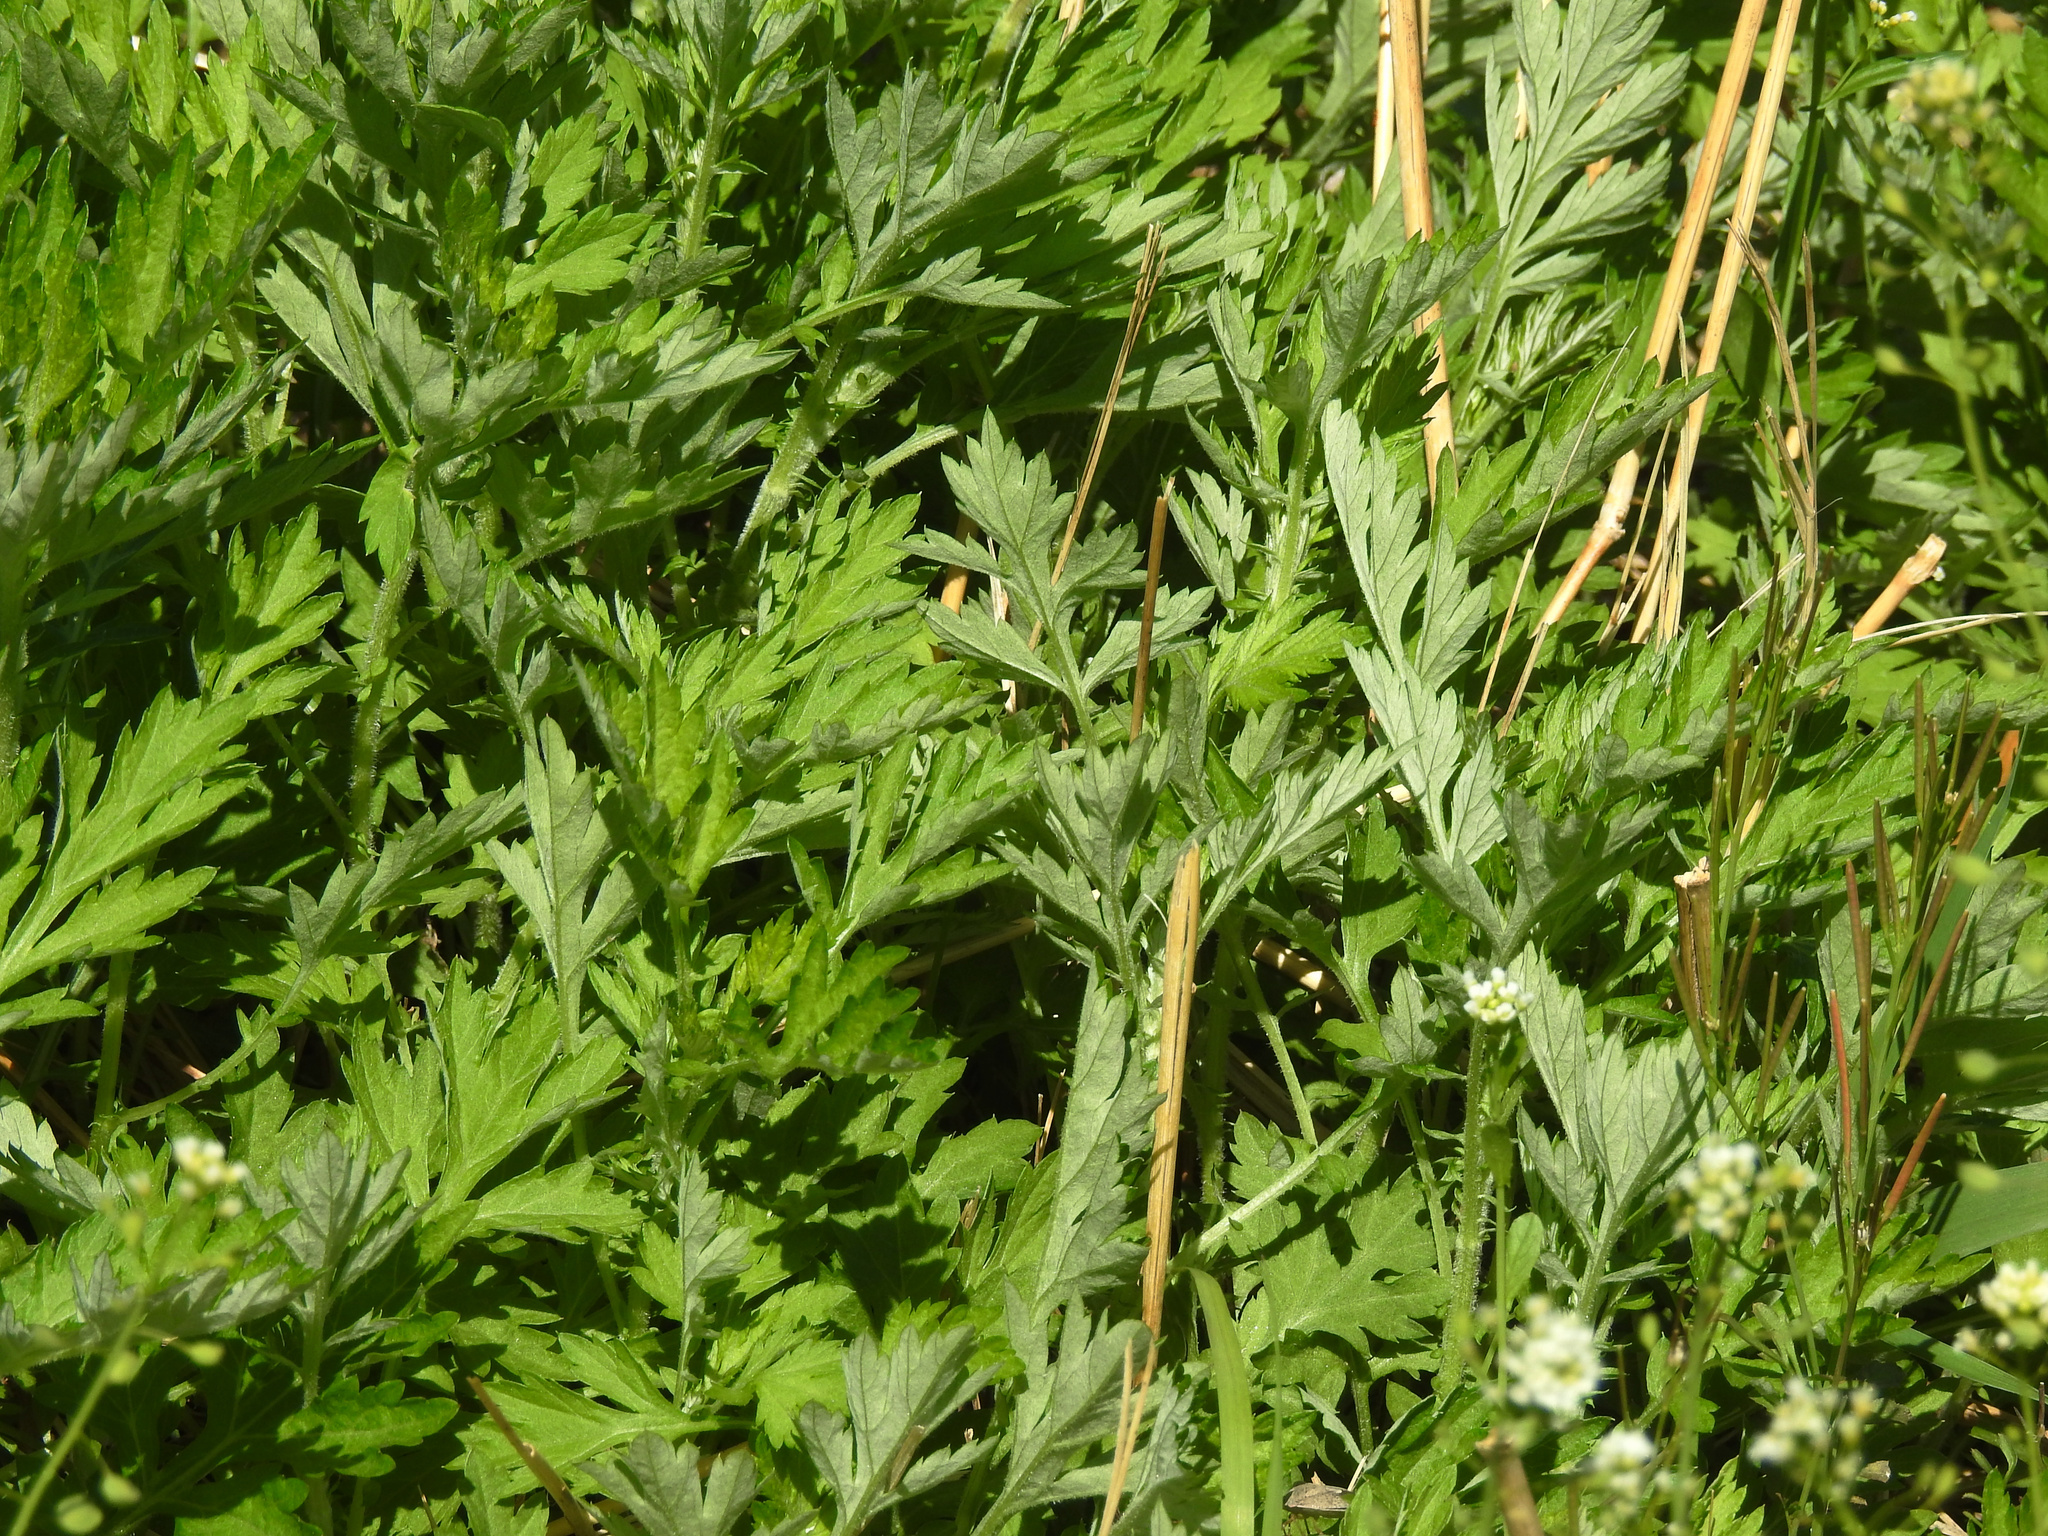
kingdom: Plantae
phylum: Tracheophyta
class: Magnoliopsida
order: Asterales
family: Asteraceae
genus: Artemisia
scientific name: Artemisia vulgaris
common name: Mugwort
